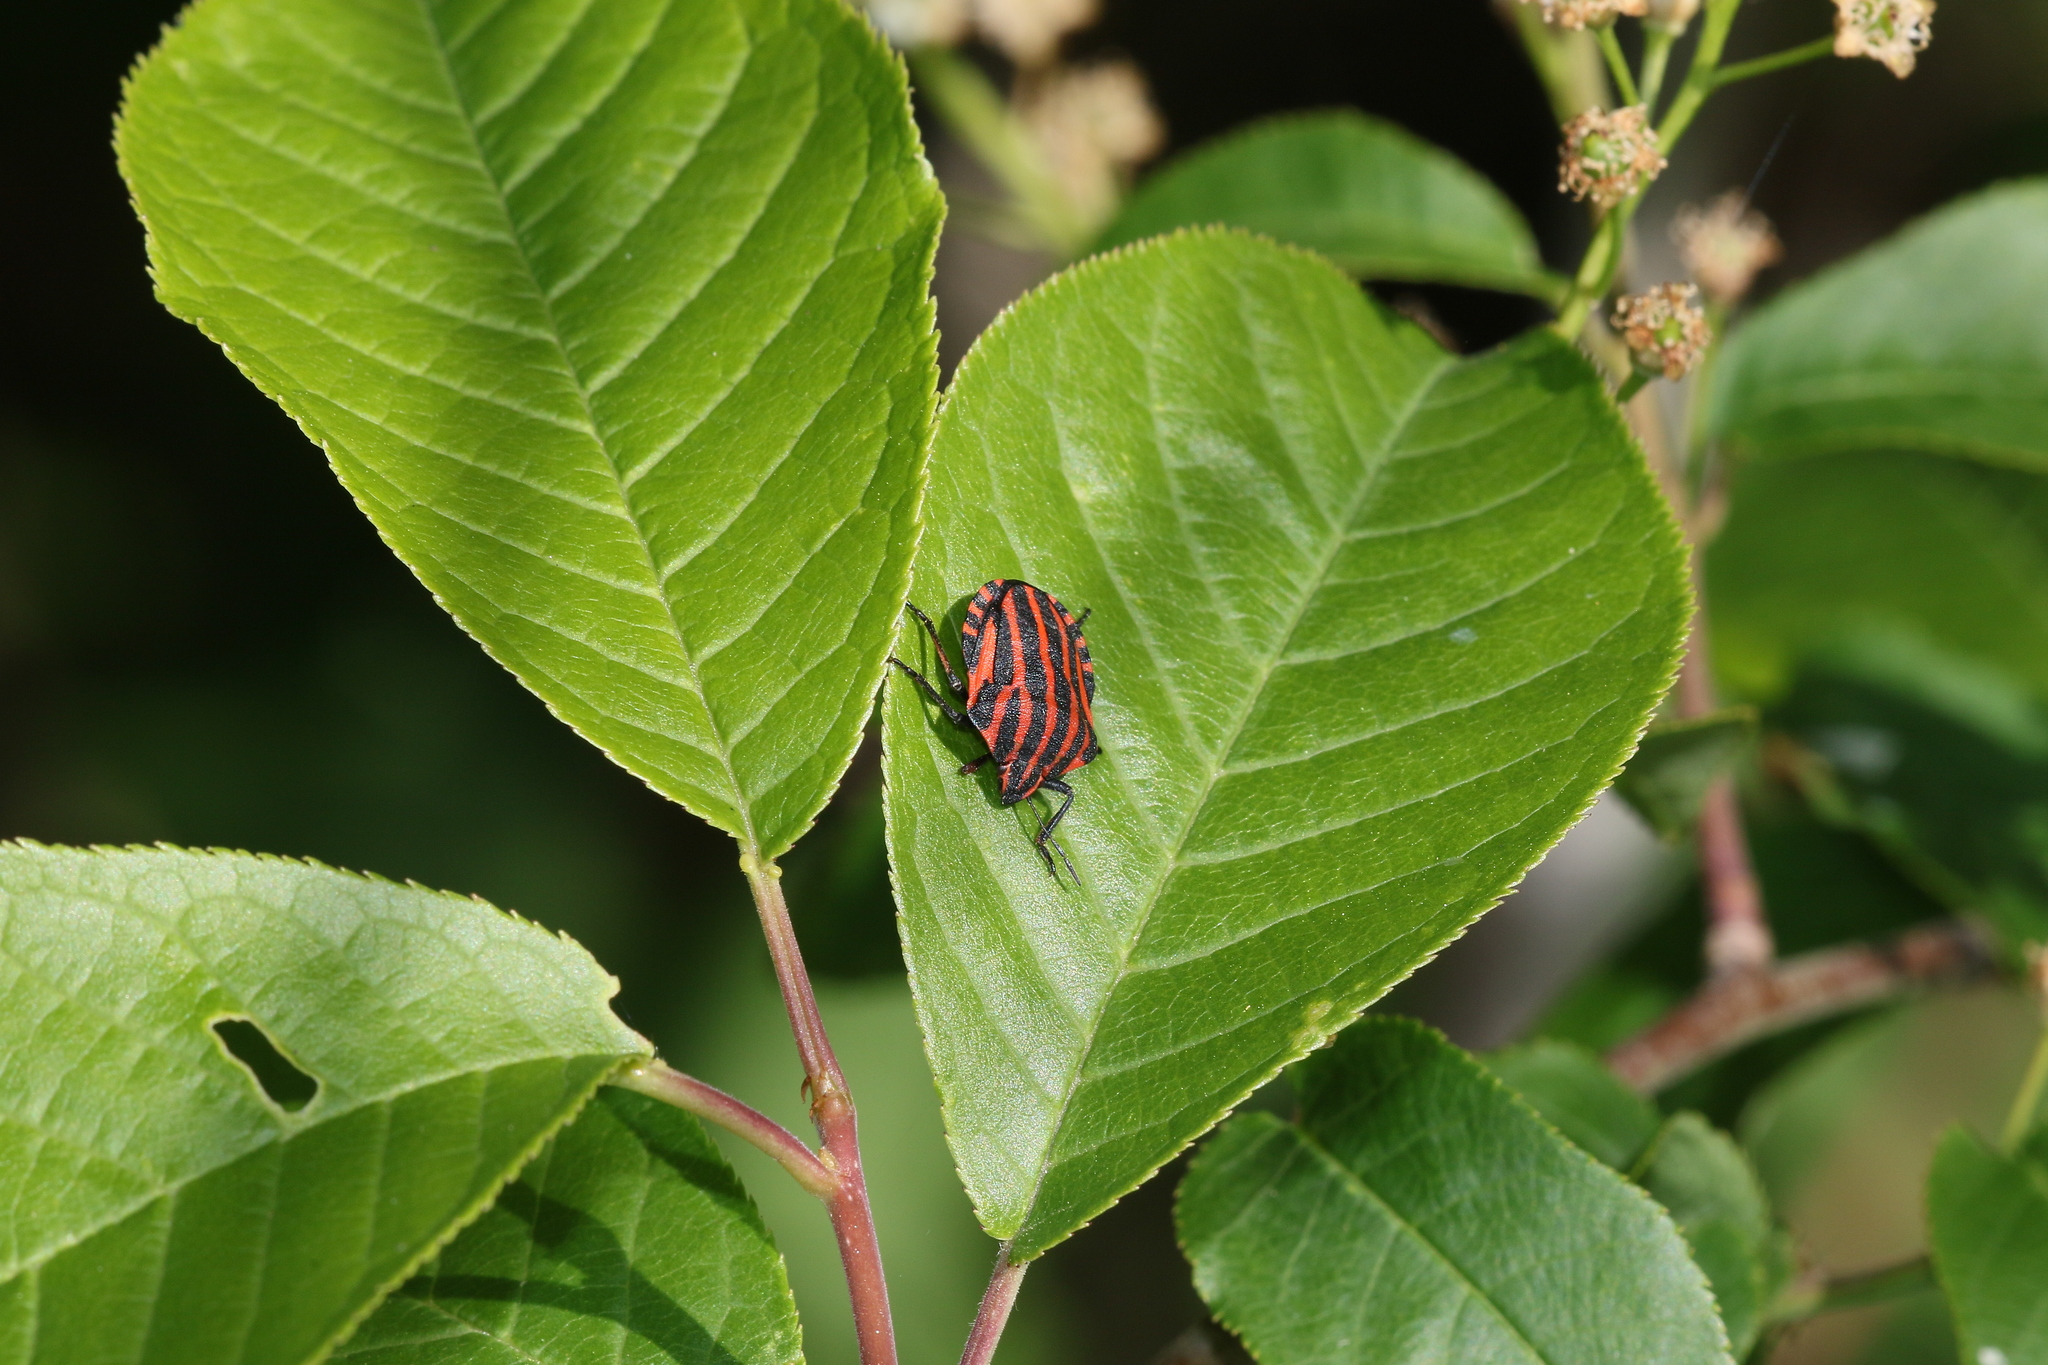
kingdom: Animalia
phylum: Arthropoda
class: Insecta
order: Hemiptera
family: Pentatomidae
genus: Graphosoma
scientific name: Graphosoma italicum
